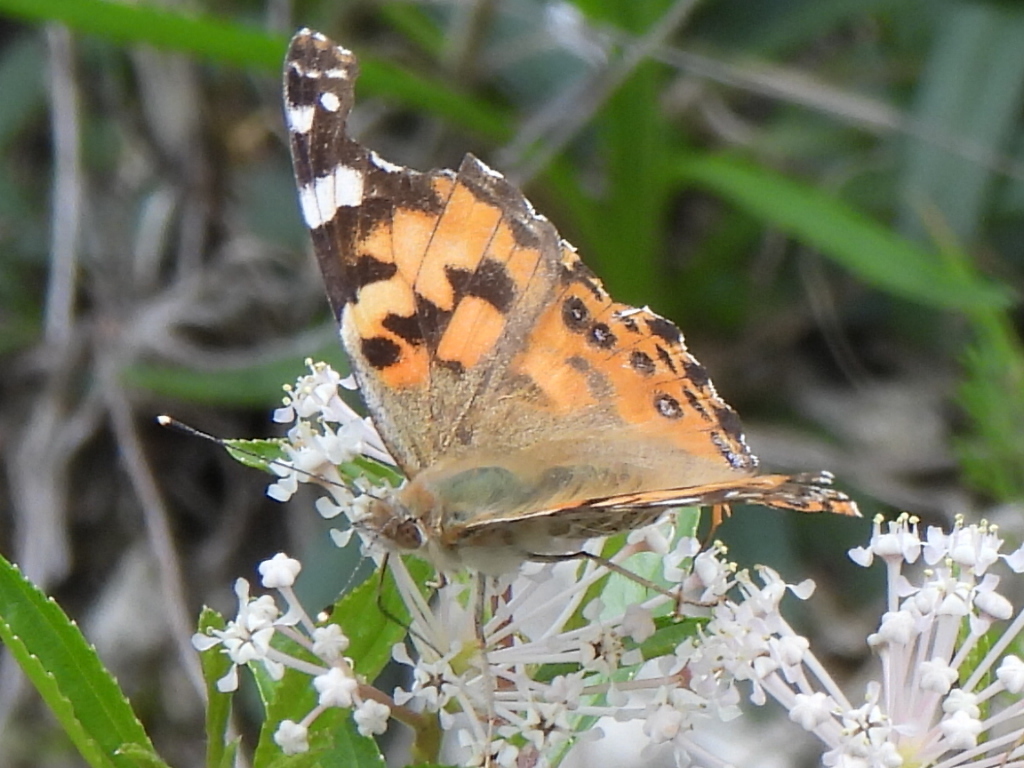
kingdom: Animalia
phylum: Arthropoda
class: Insecta
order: Lepidoptera
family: Nymphalidae
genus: Vanessa
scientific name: Vanessa cardui
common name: Painted lady
